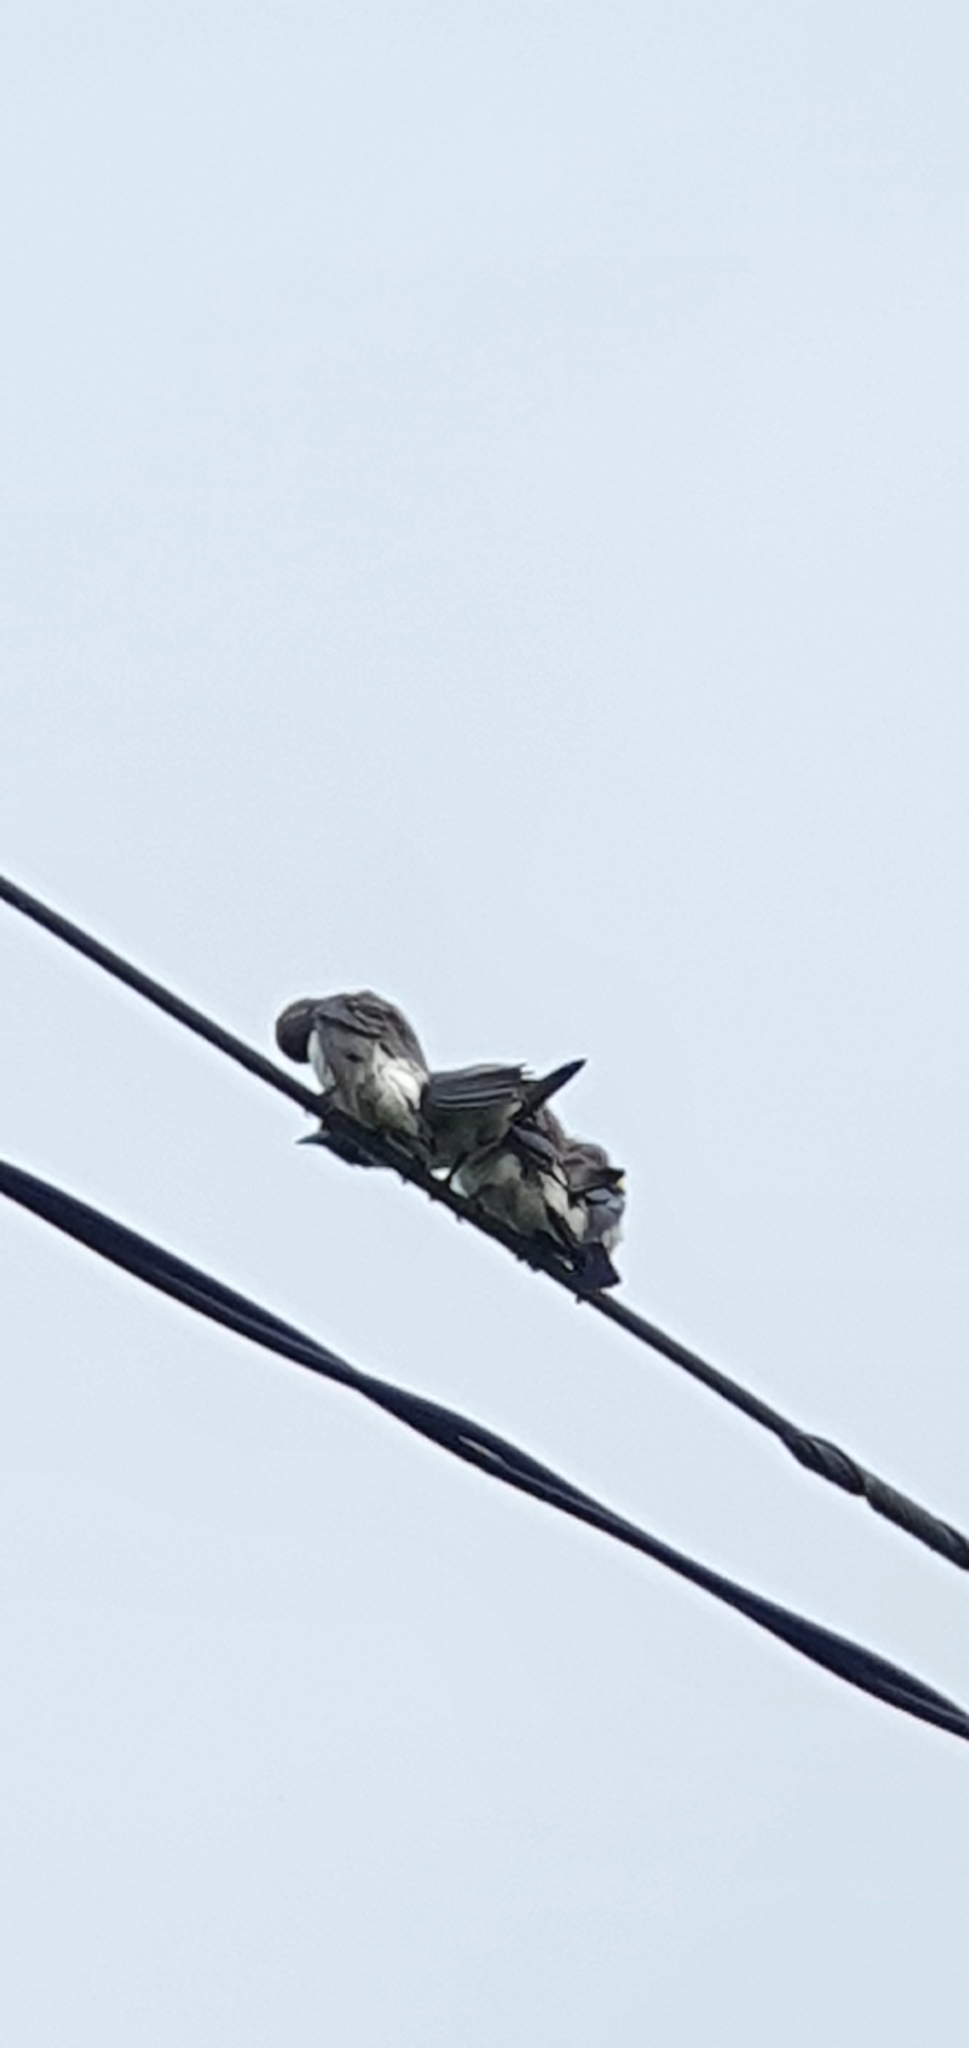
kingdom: Animalia
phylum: Chordata
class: Aves
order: Passeriformes
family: Artamidae
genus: Artamus
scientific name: Artamus leucoryn
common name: White-breasted woodswallow
